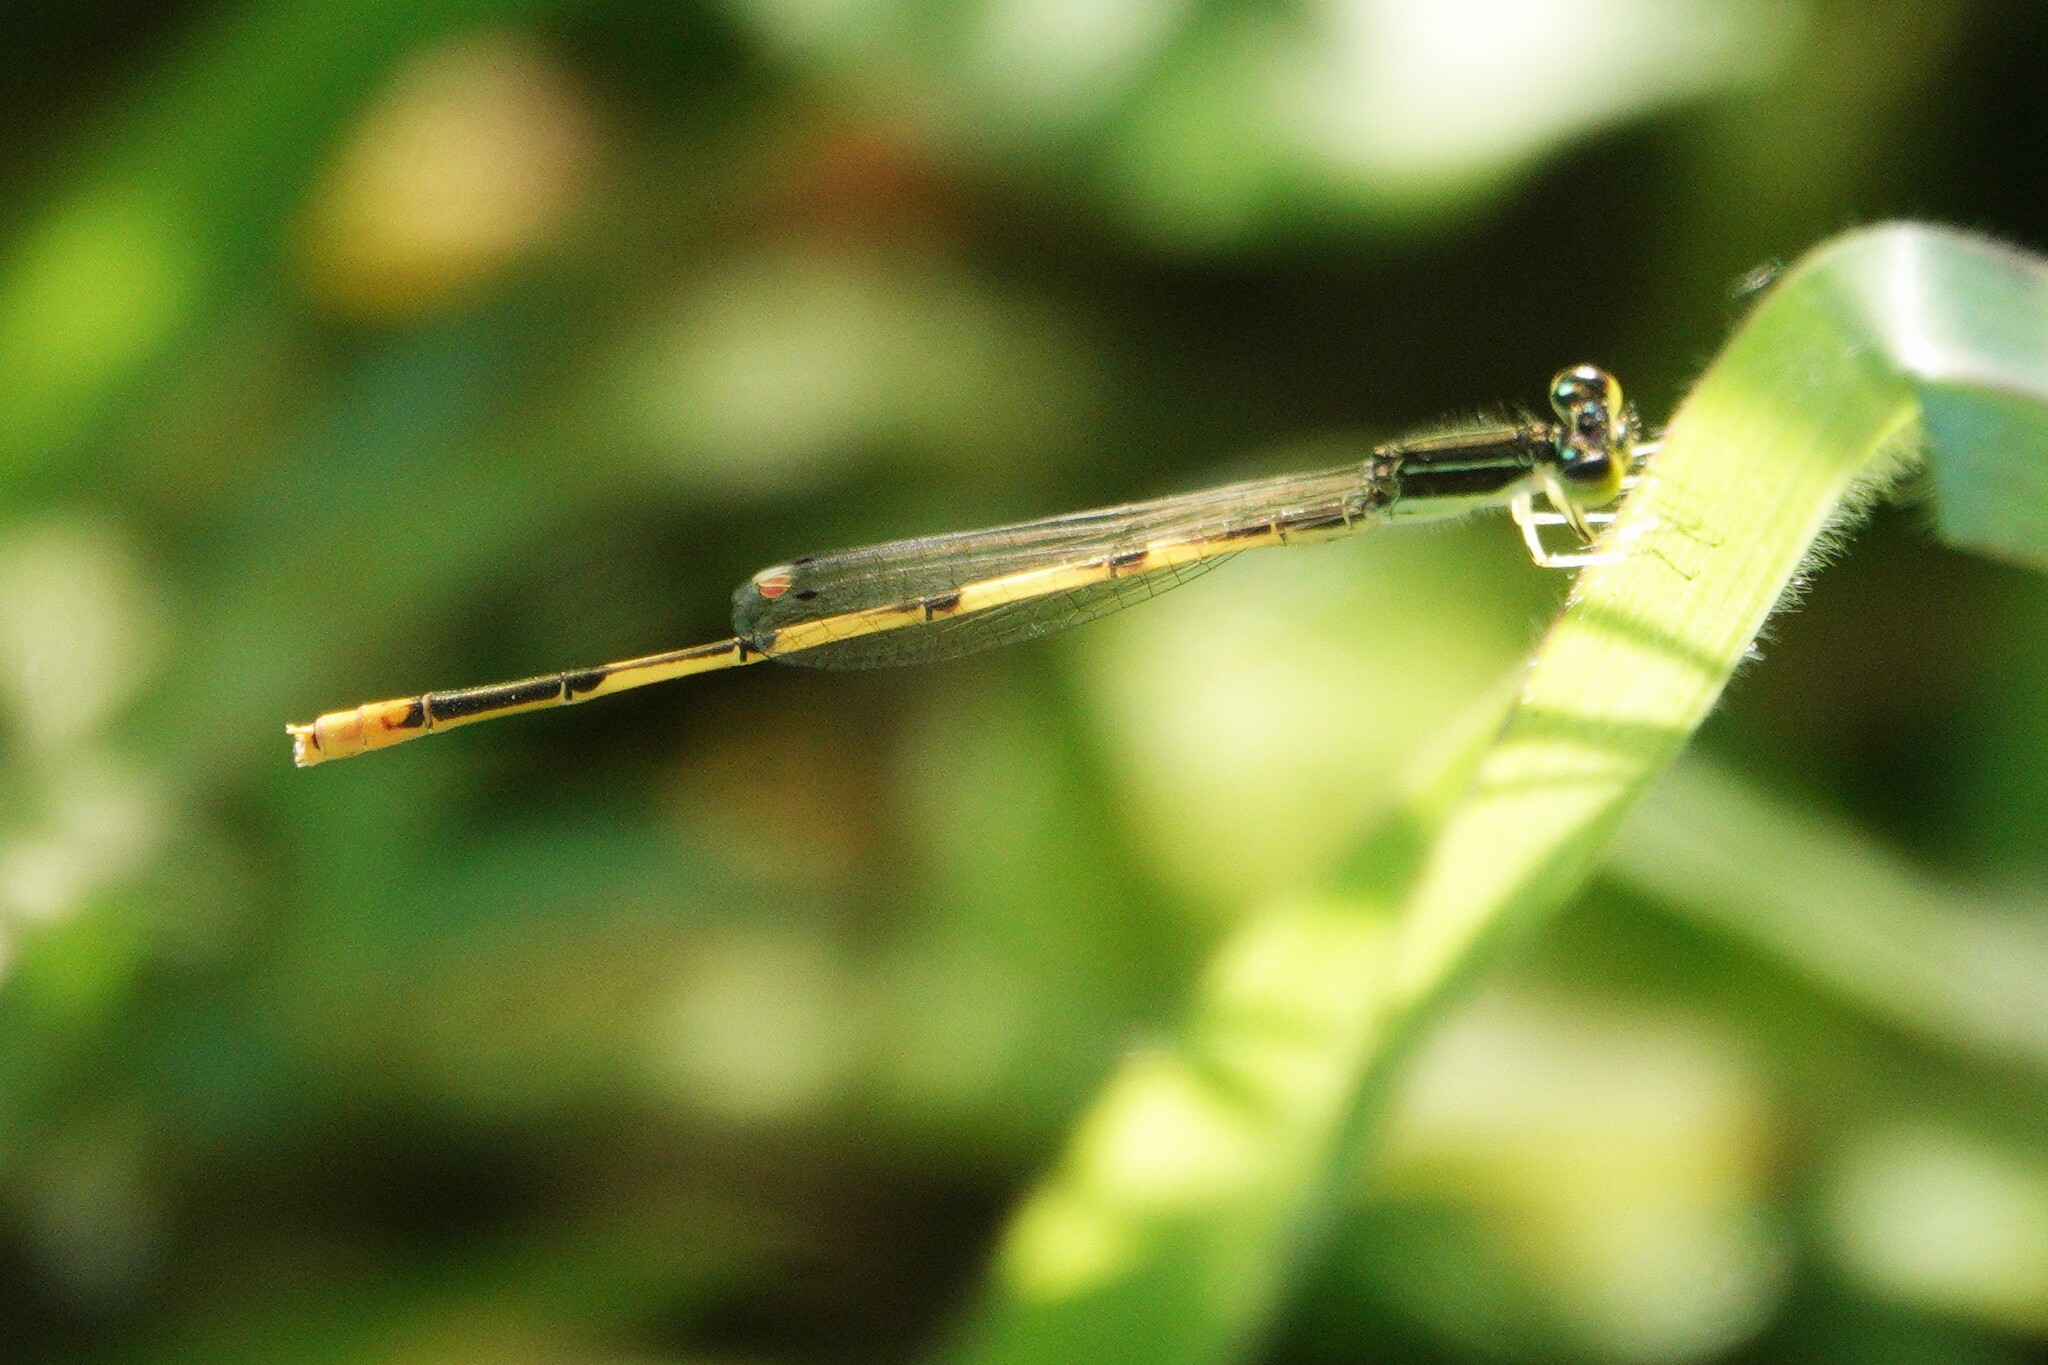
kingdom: Animalia
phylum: Arthropoda
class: Insecta
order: Odonata
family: Coenagrionidae
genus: Ischnura
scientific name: Ischnura hastata
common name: Citrine forktail
